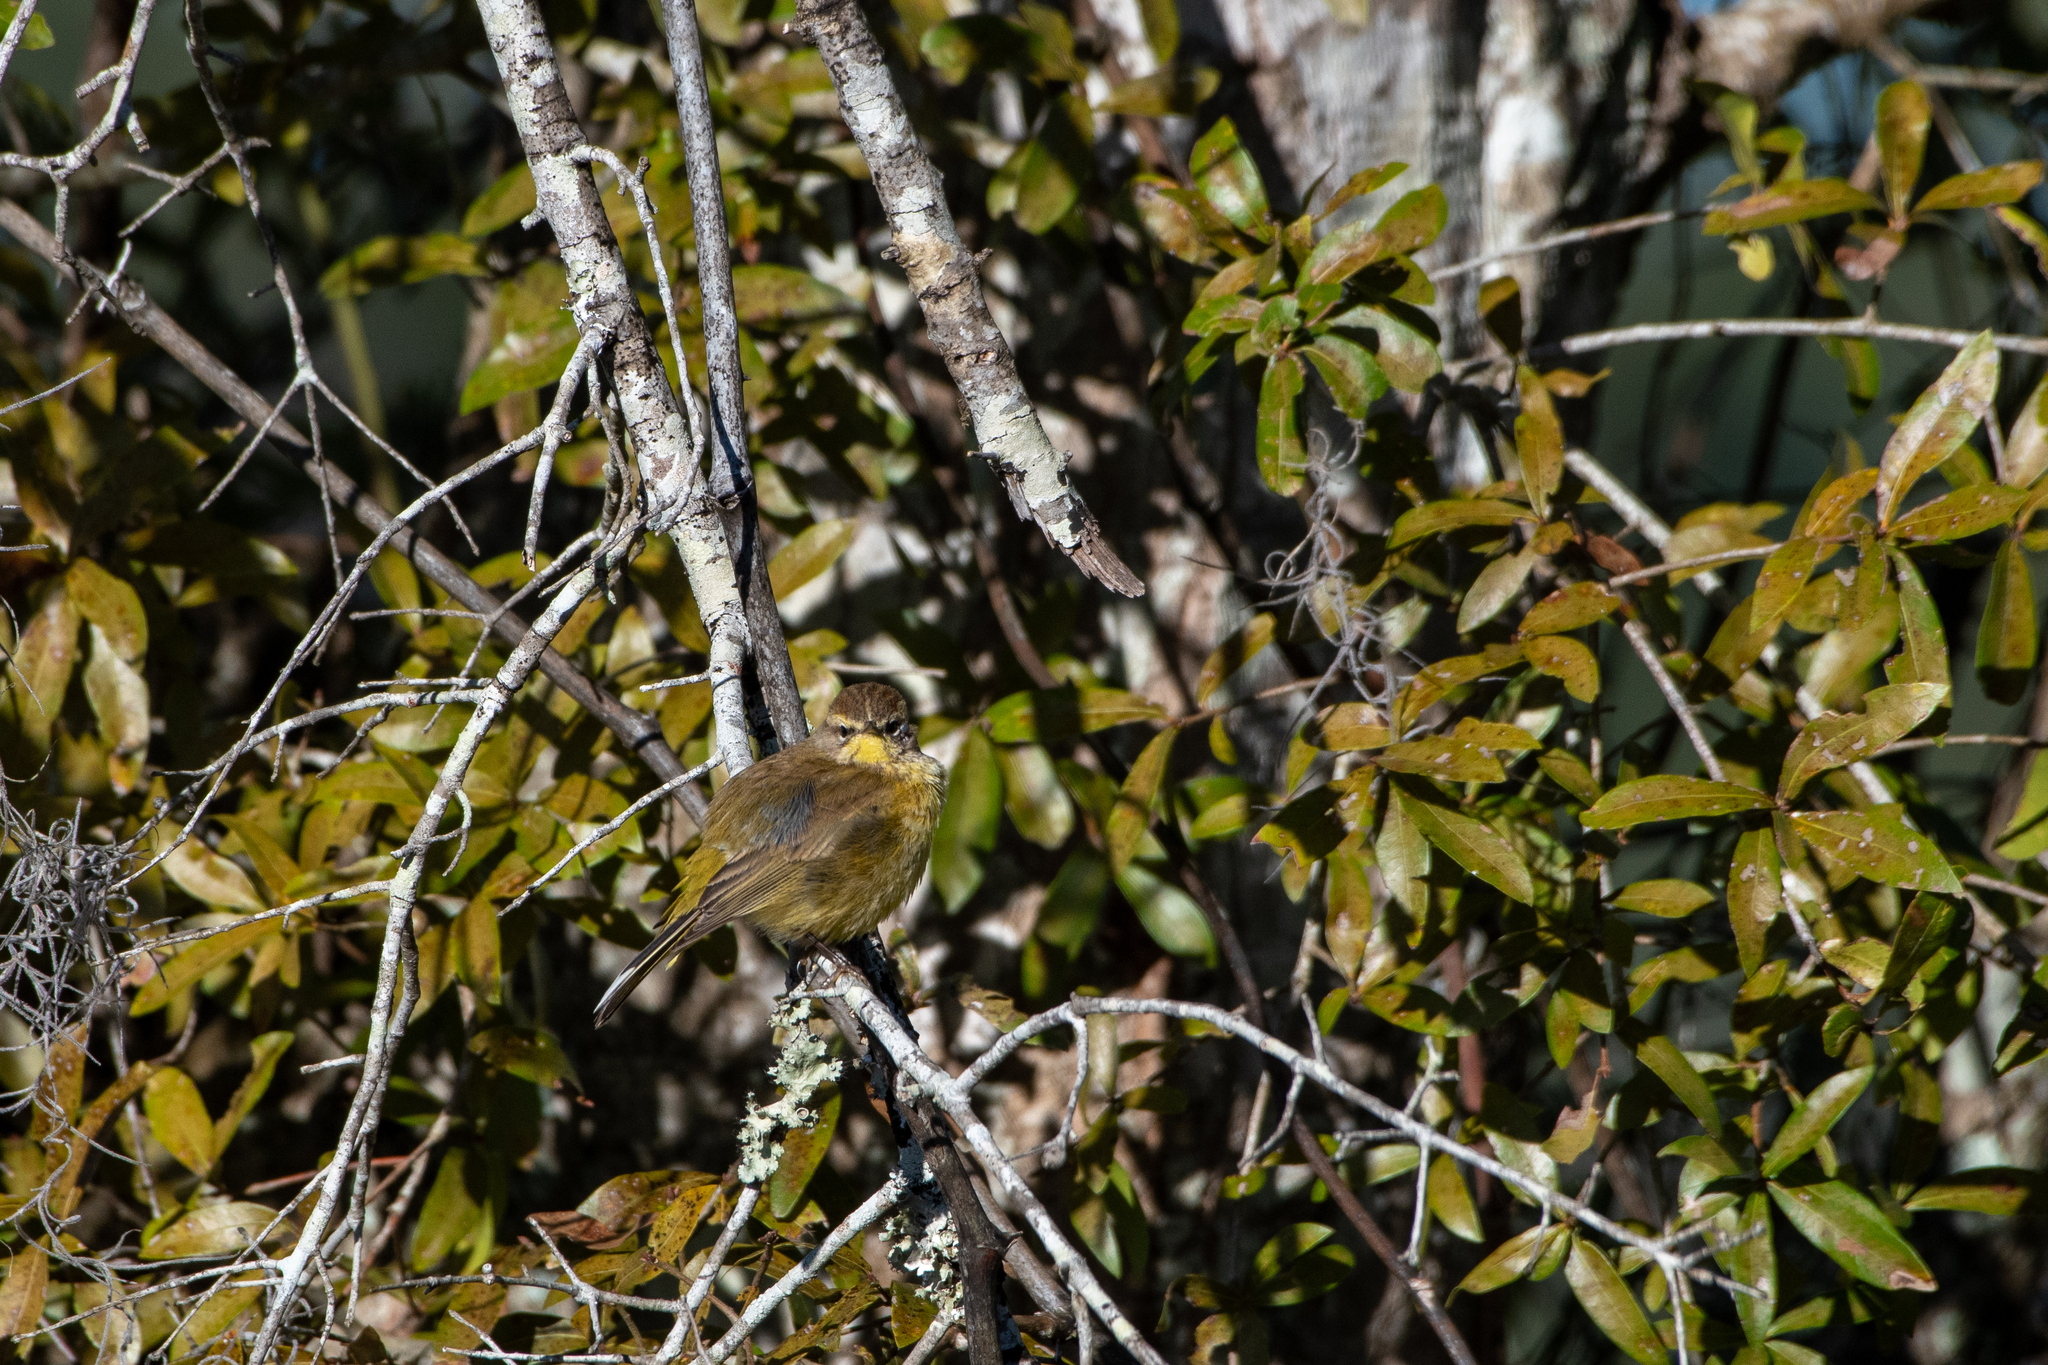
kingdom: Animalia
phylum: Chordata
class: Aves
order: Passeriformes
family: Parulidae
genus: Setophaga
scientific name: Setophaga palmarum
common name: Palm warbler
